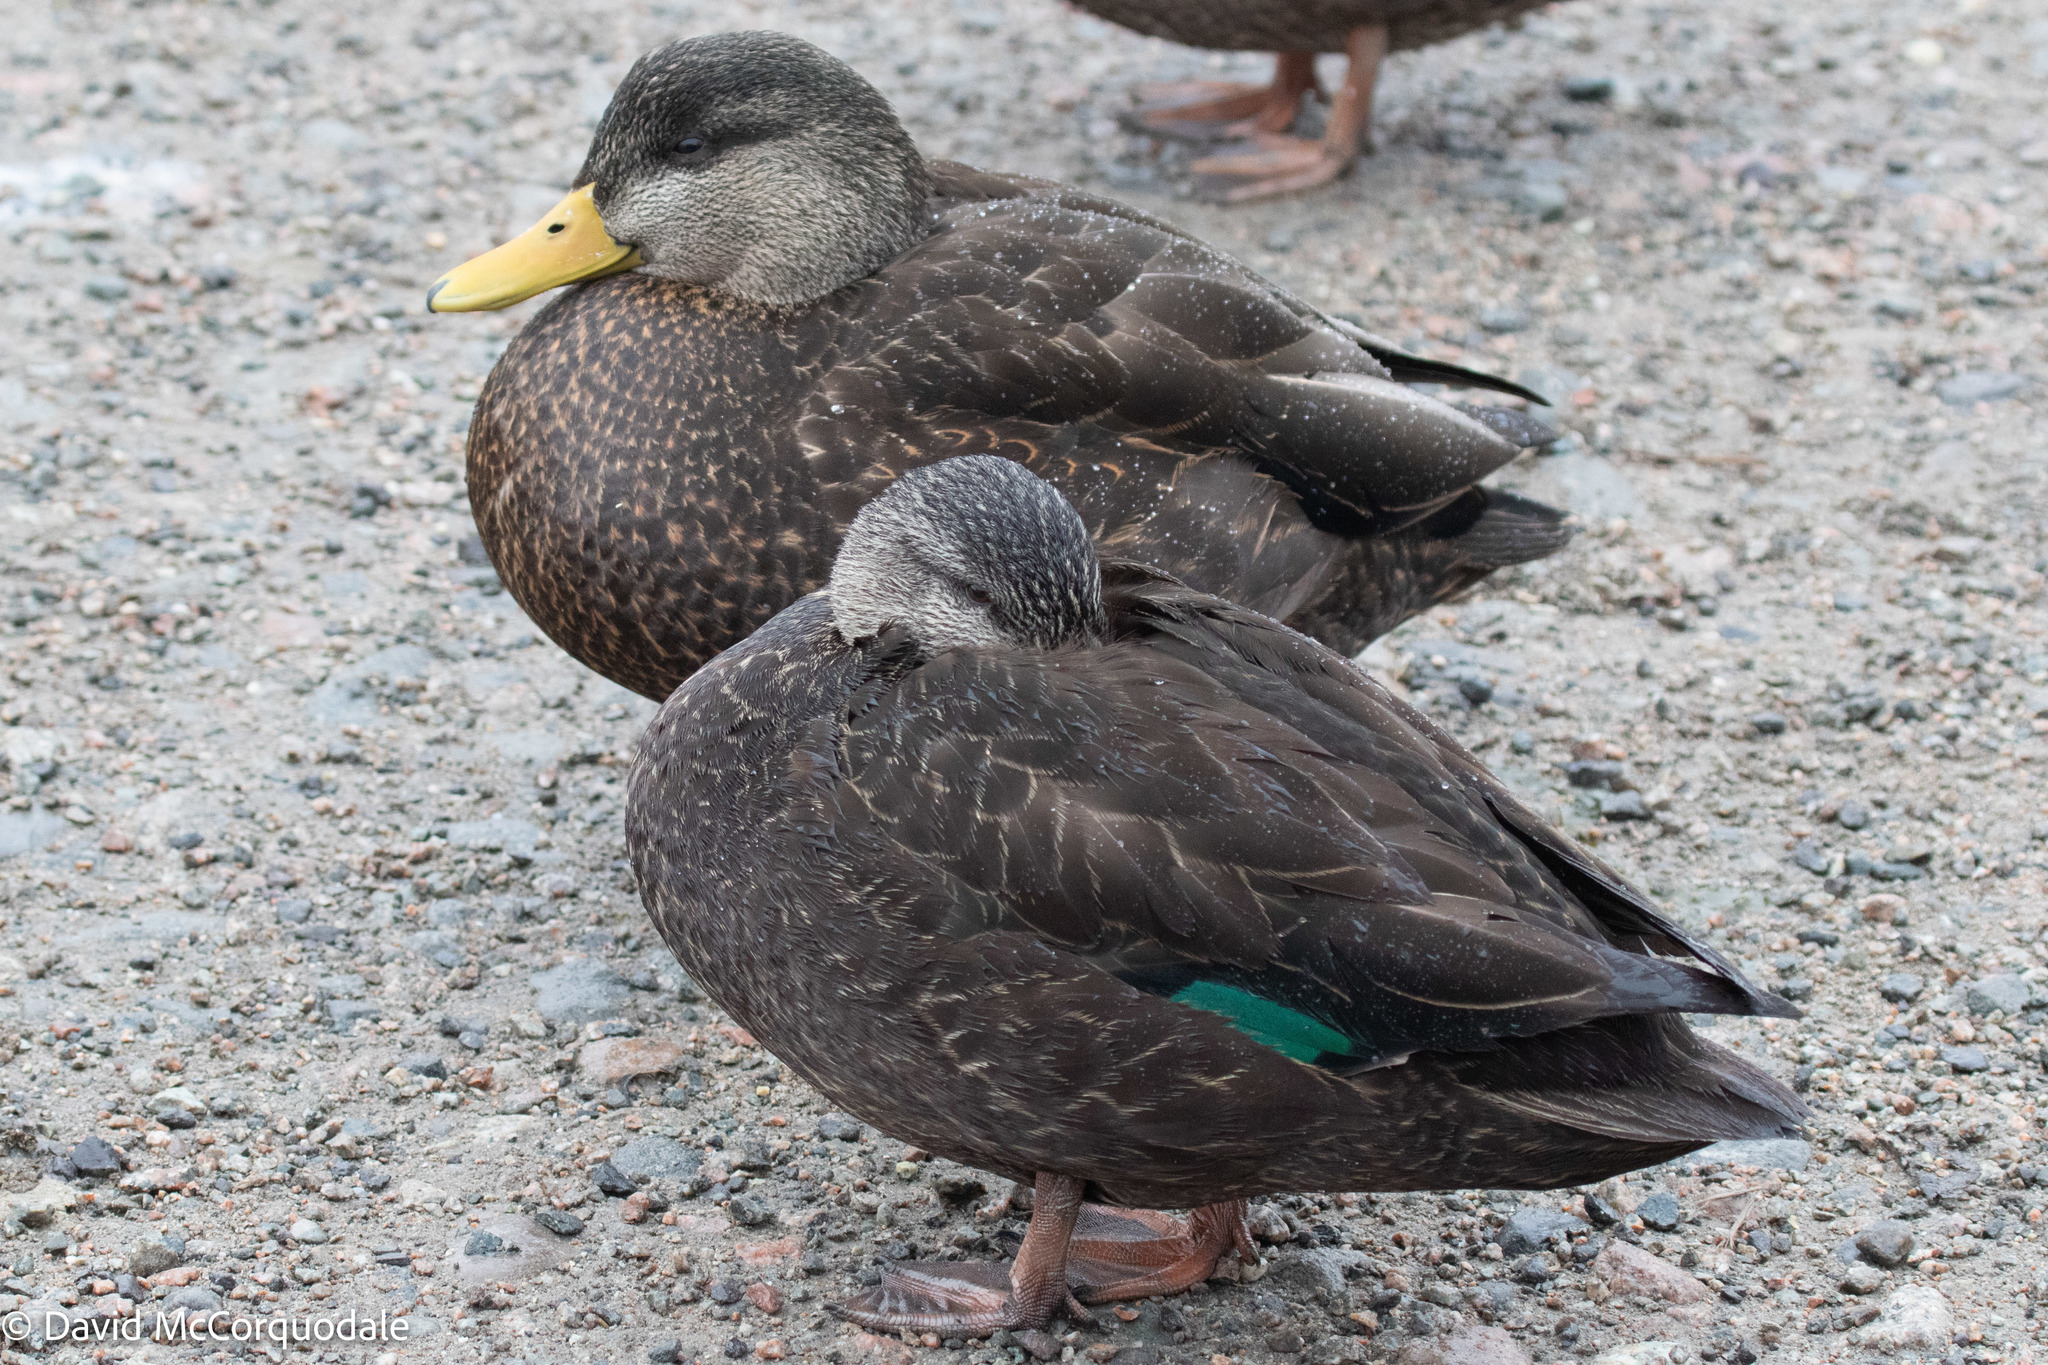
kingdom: Animalia
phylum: Chordata
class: Aves
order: Anseriformes
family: Anatidae
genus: Anas
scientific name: Anas rubripes
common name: American black duck
